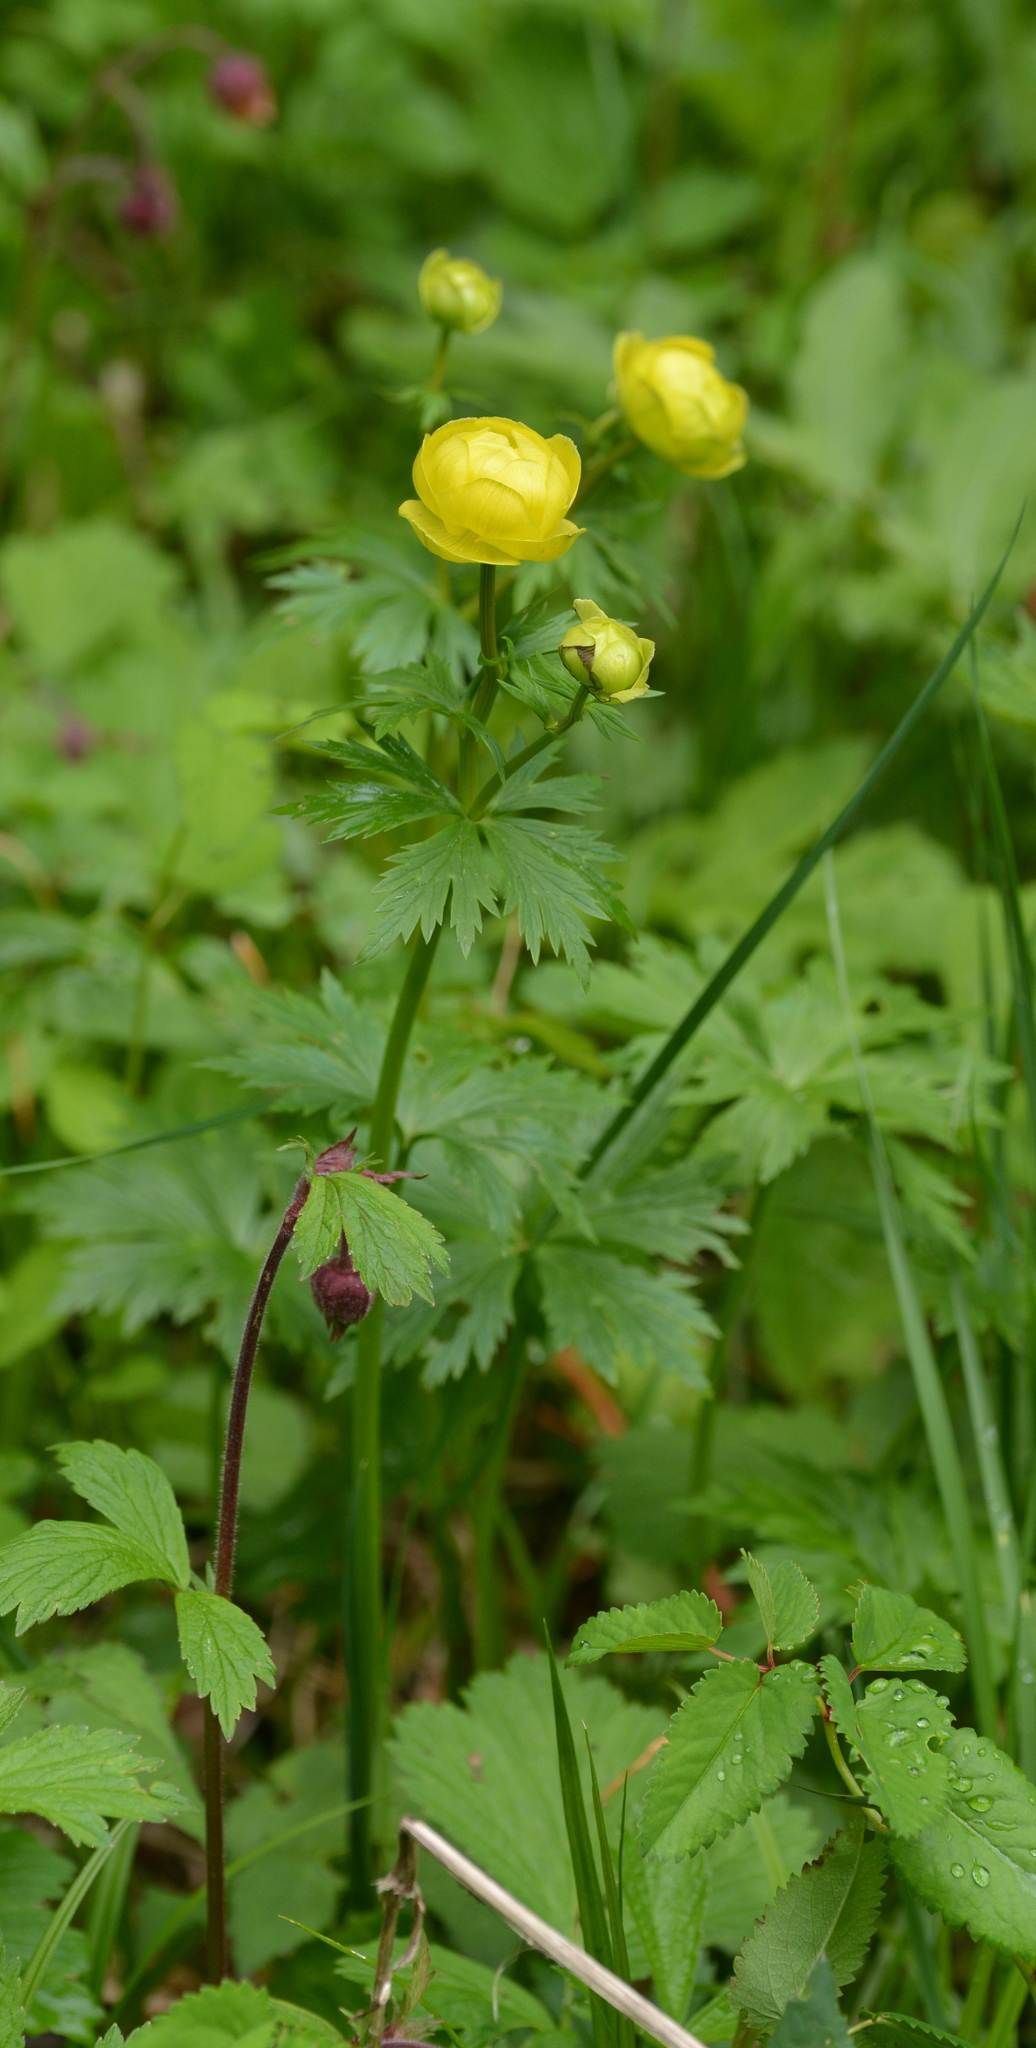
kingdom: Plantae
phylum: Tracheophyta
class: Magnoliopsida
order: Ranunculales
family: Ranunculaceae
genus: Trollius
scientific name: Trollius europaeus
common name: European globeflower
